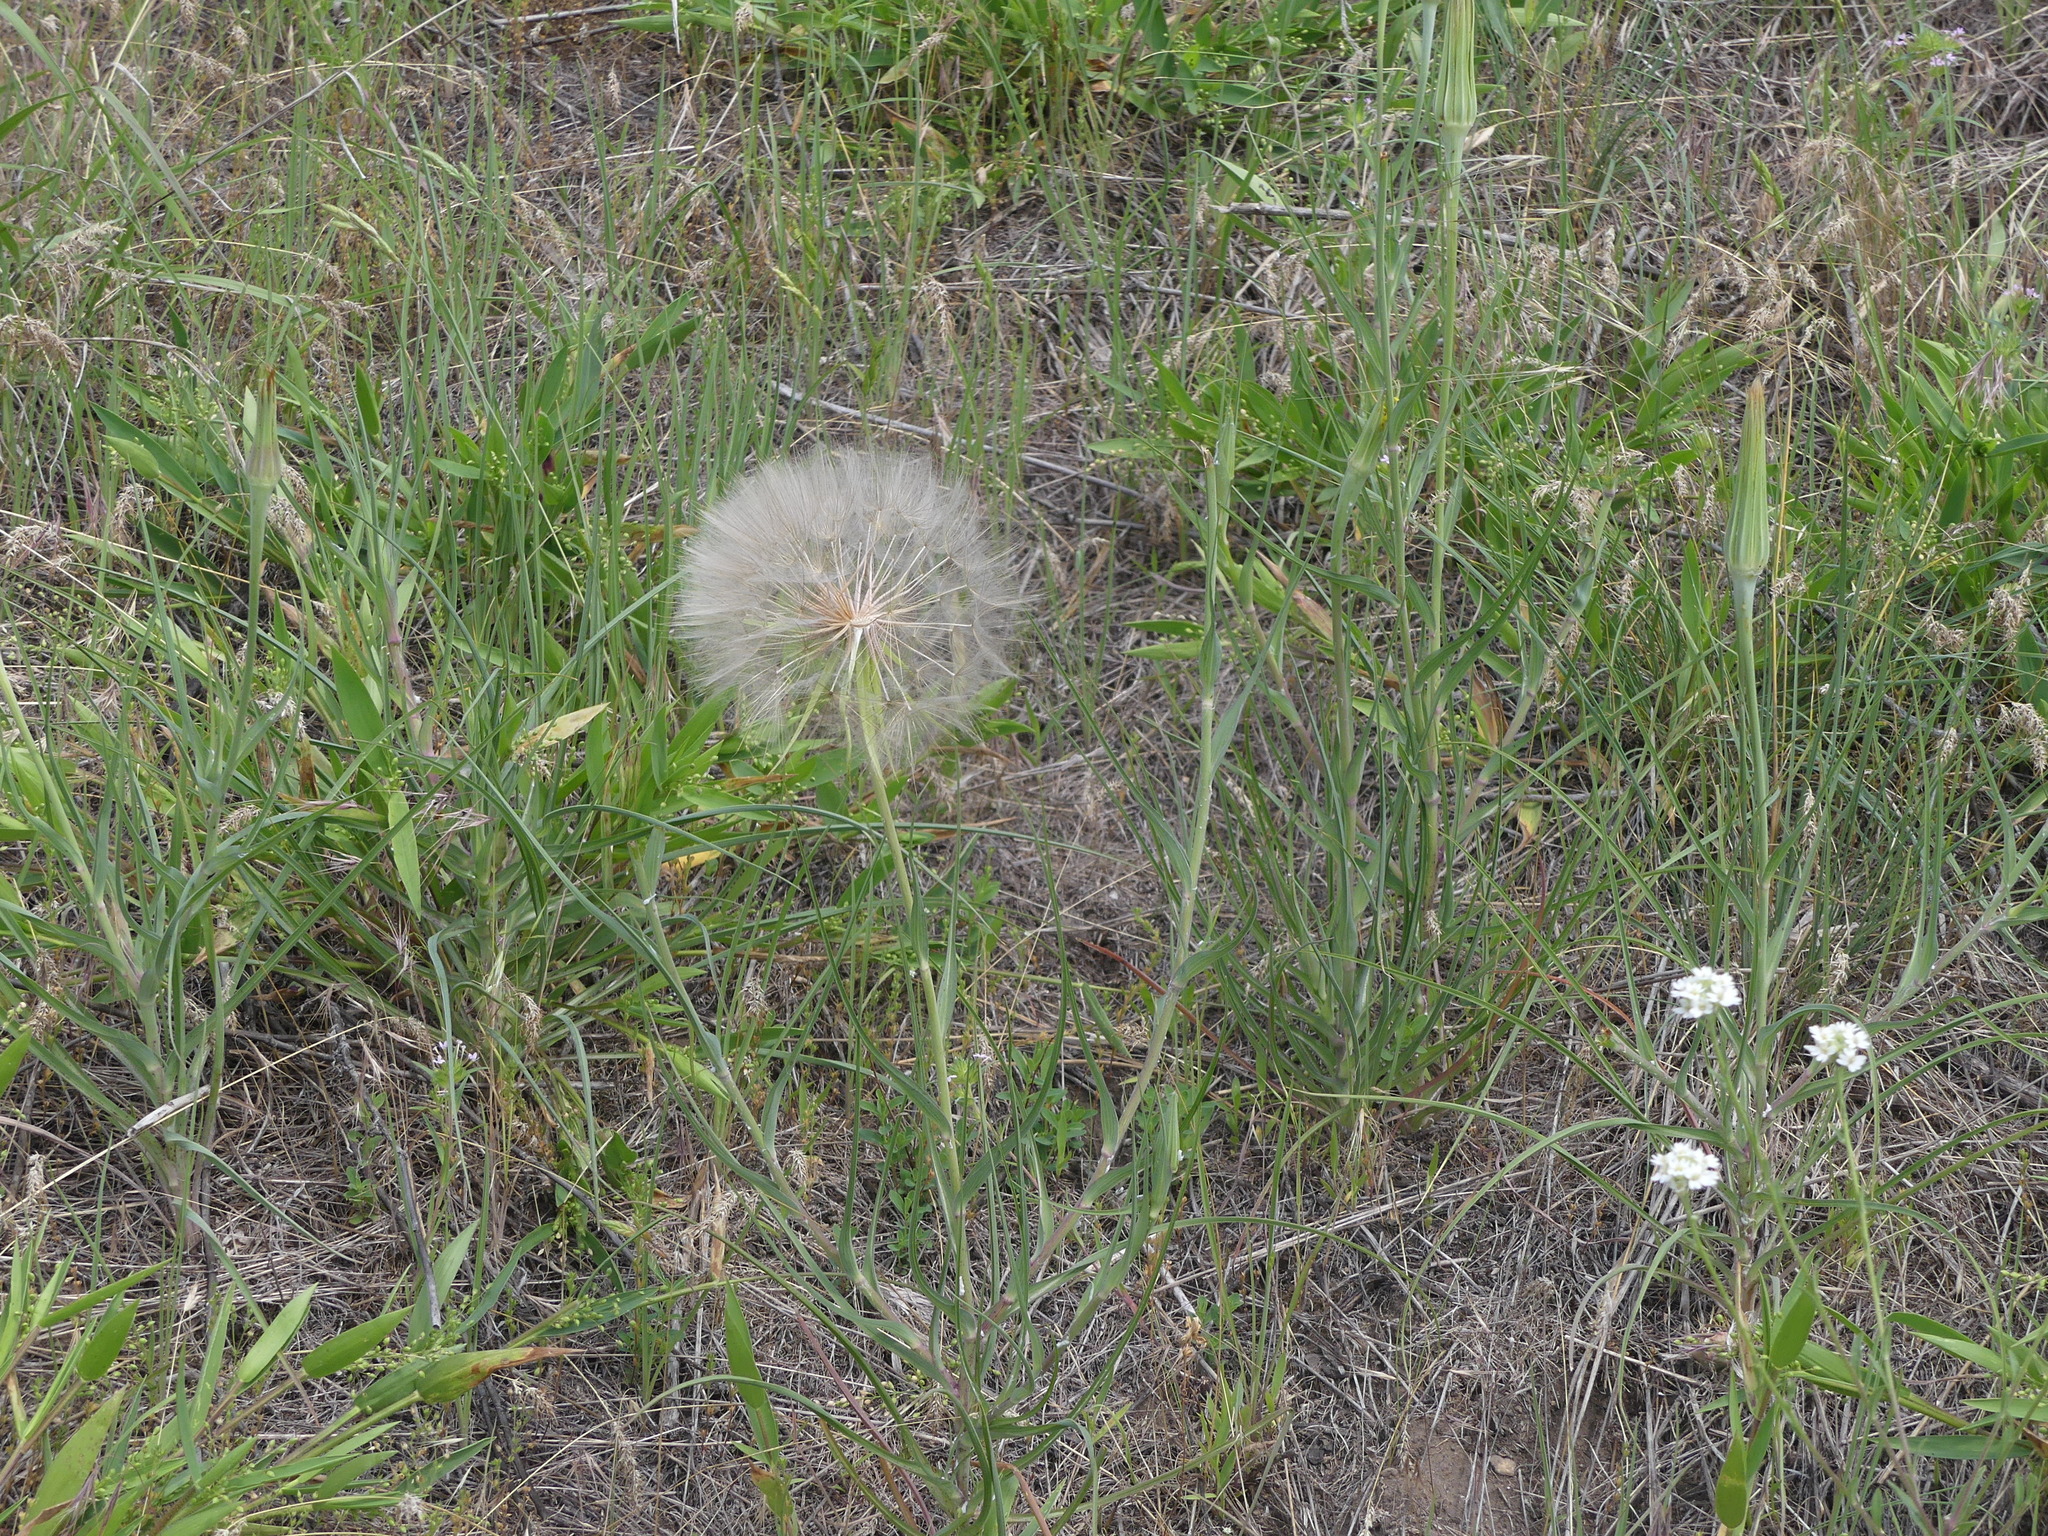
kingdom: Plantae
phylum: Tracheophyta
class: Magnoliopsida
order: Asterales
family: Asteraceae
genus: Tragopogon
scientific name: Tragopogon dubius
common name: Yellow salsify
